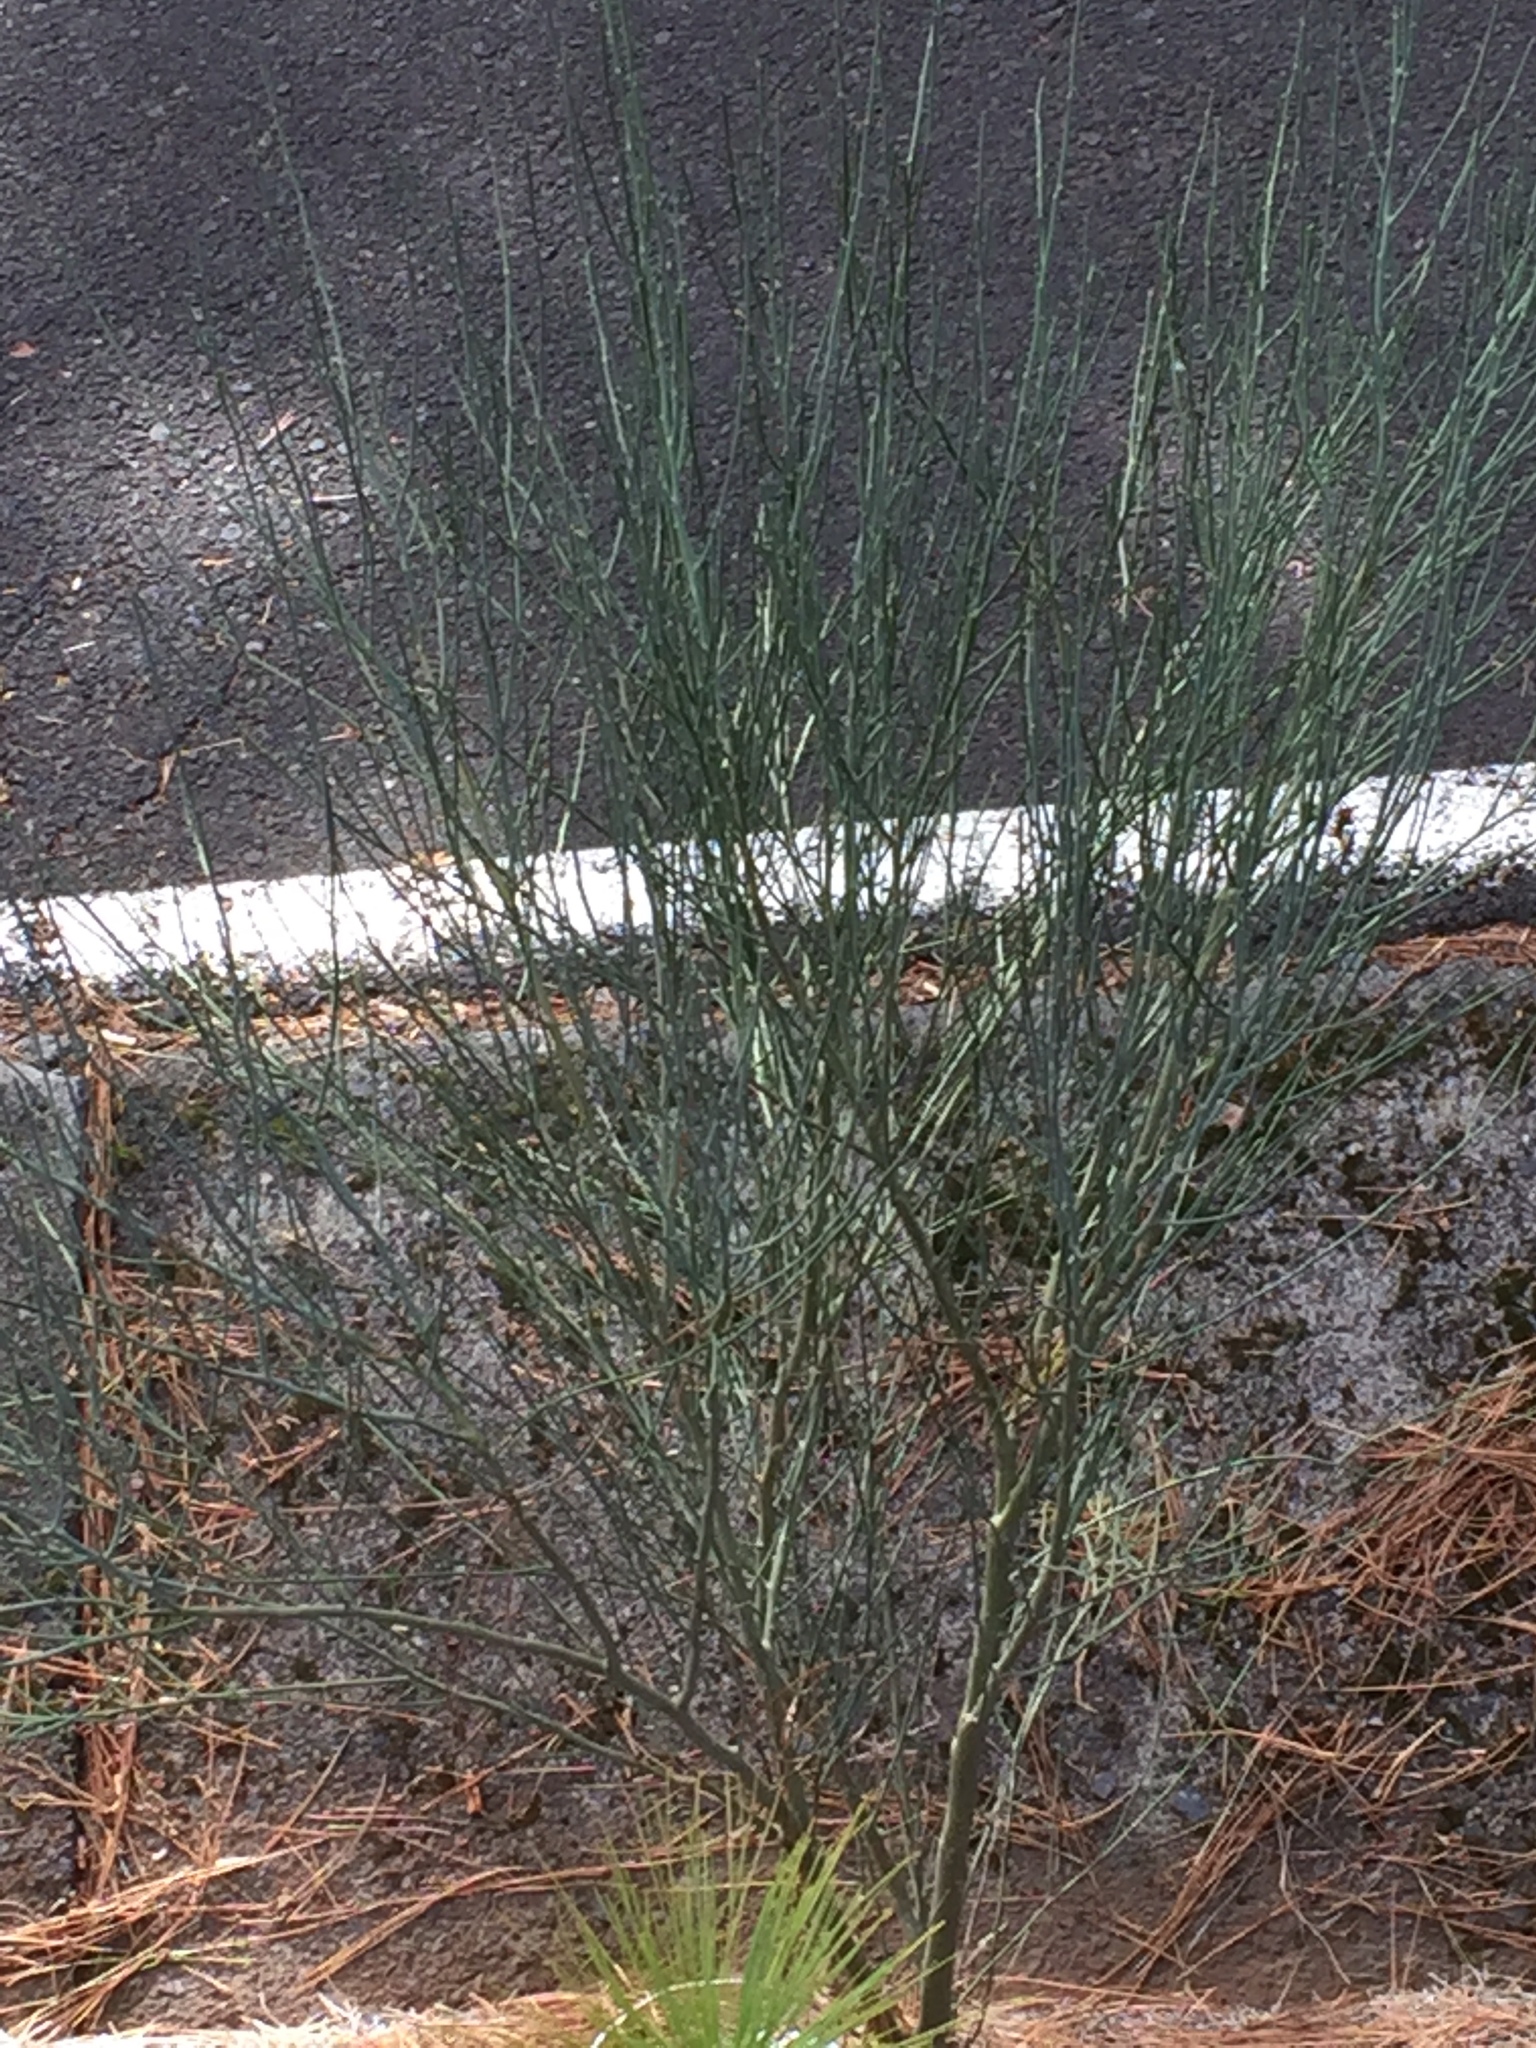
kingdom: Plantae
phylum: Tracheophyta
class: Magnoliopsida
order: Fabales
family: Fabaceae
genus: Spartium
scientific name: Spartium junceum
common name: Spanish broom
